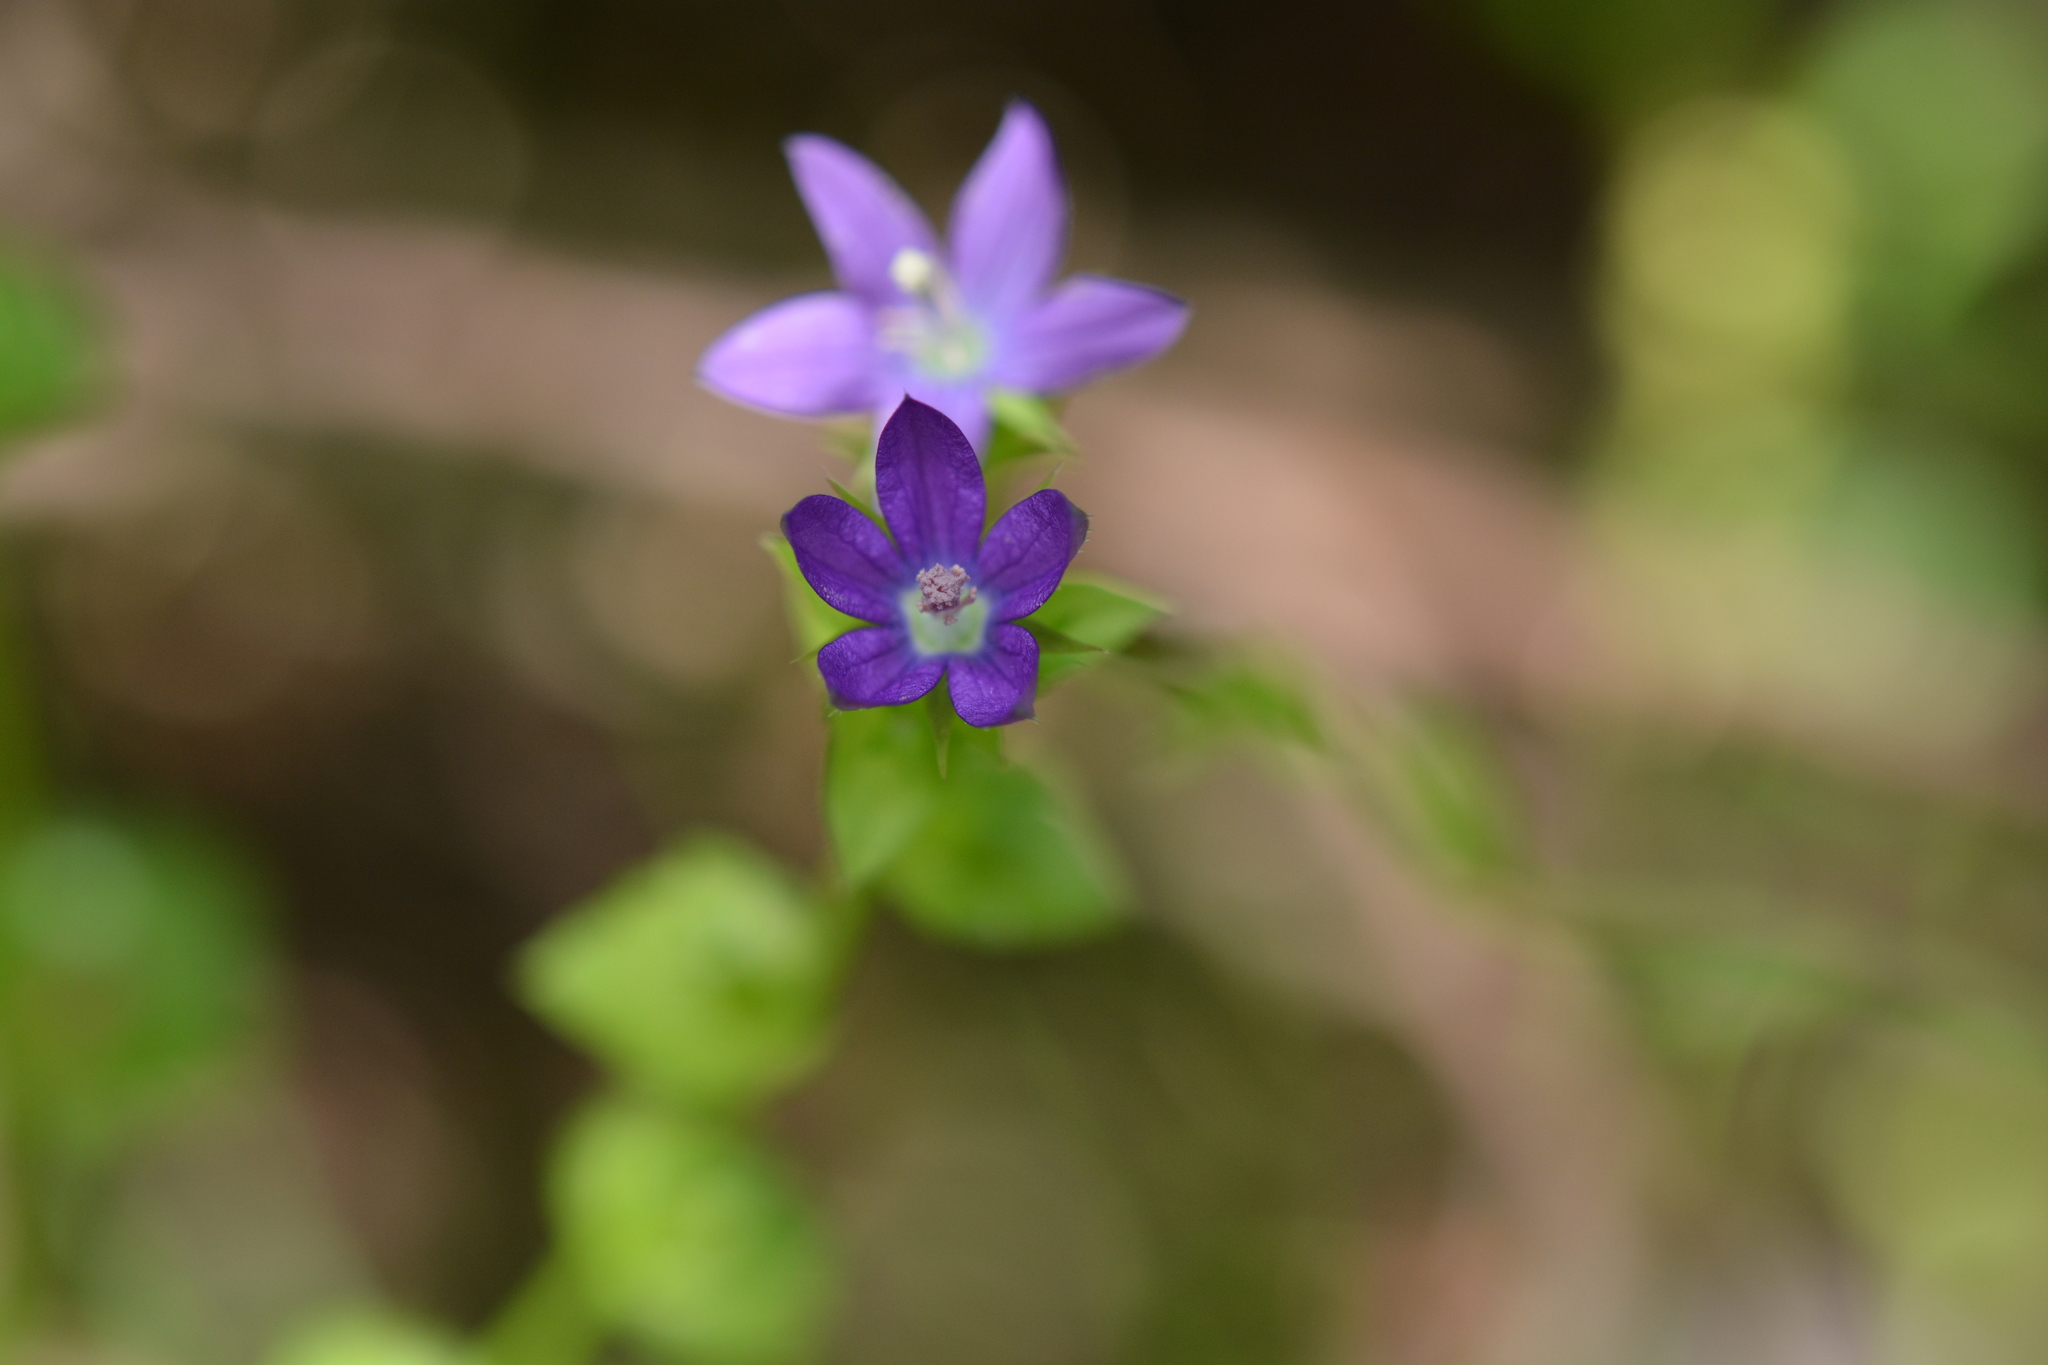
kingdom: Plantae
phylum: Tracheophyta
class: Magnoliopsida
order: Asterales
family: Campanulaceae
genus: Triodanis
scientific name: Triodanis perfoliata
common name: Clasping venus' looking-glass
